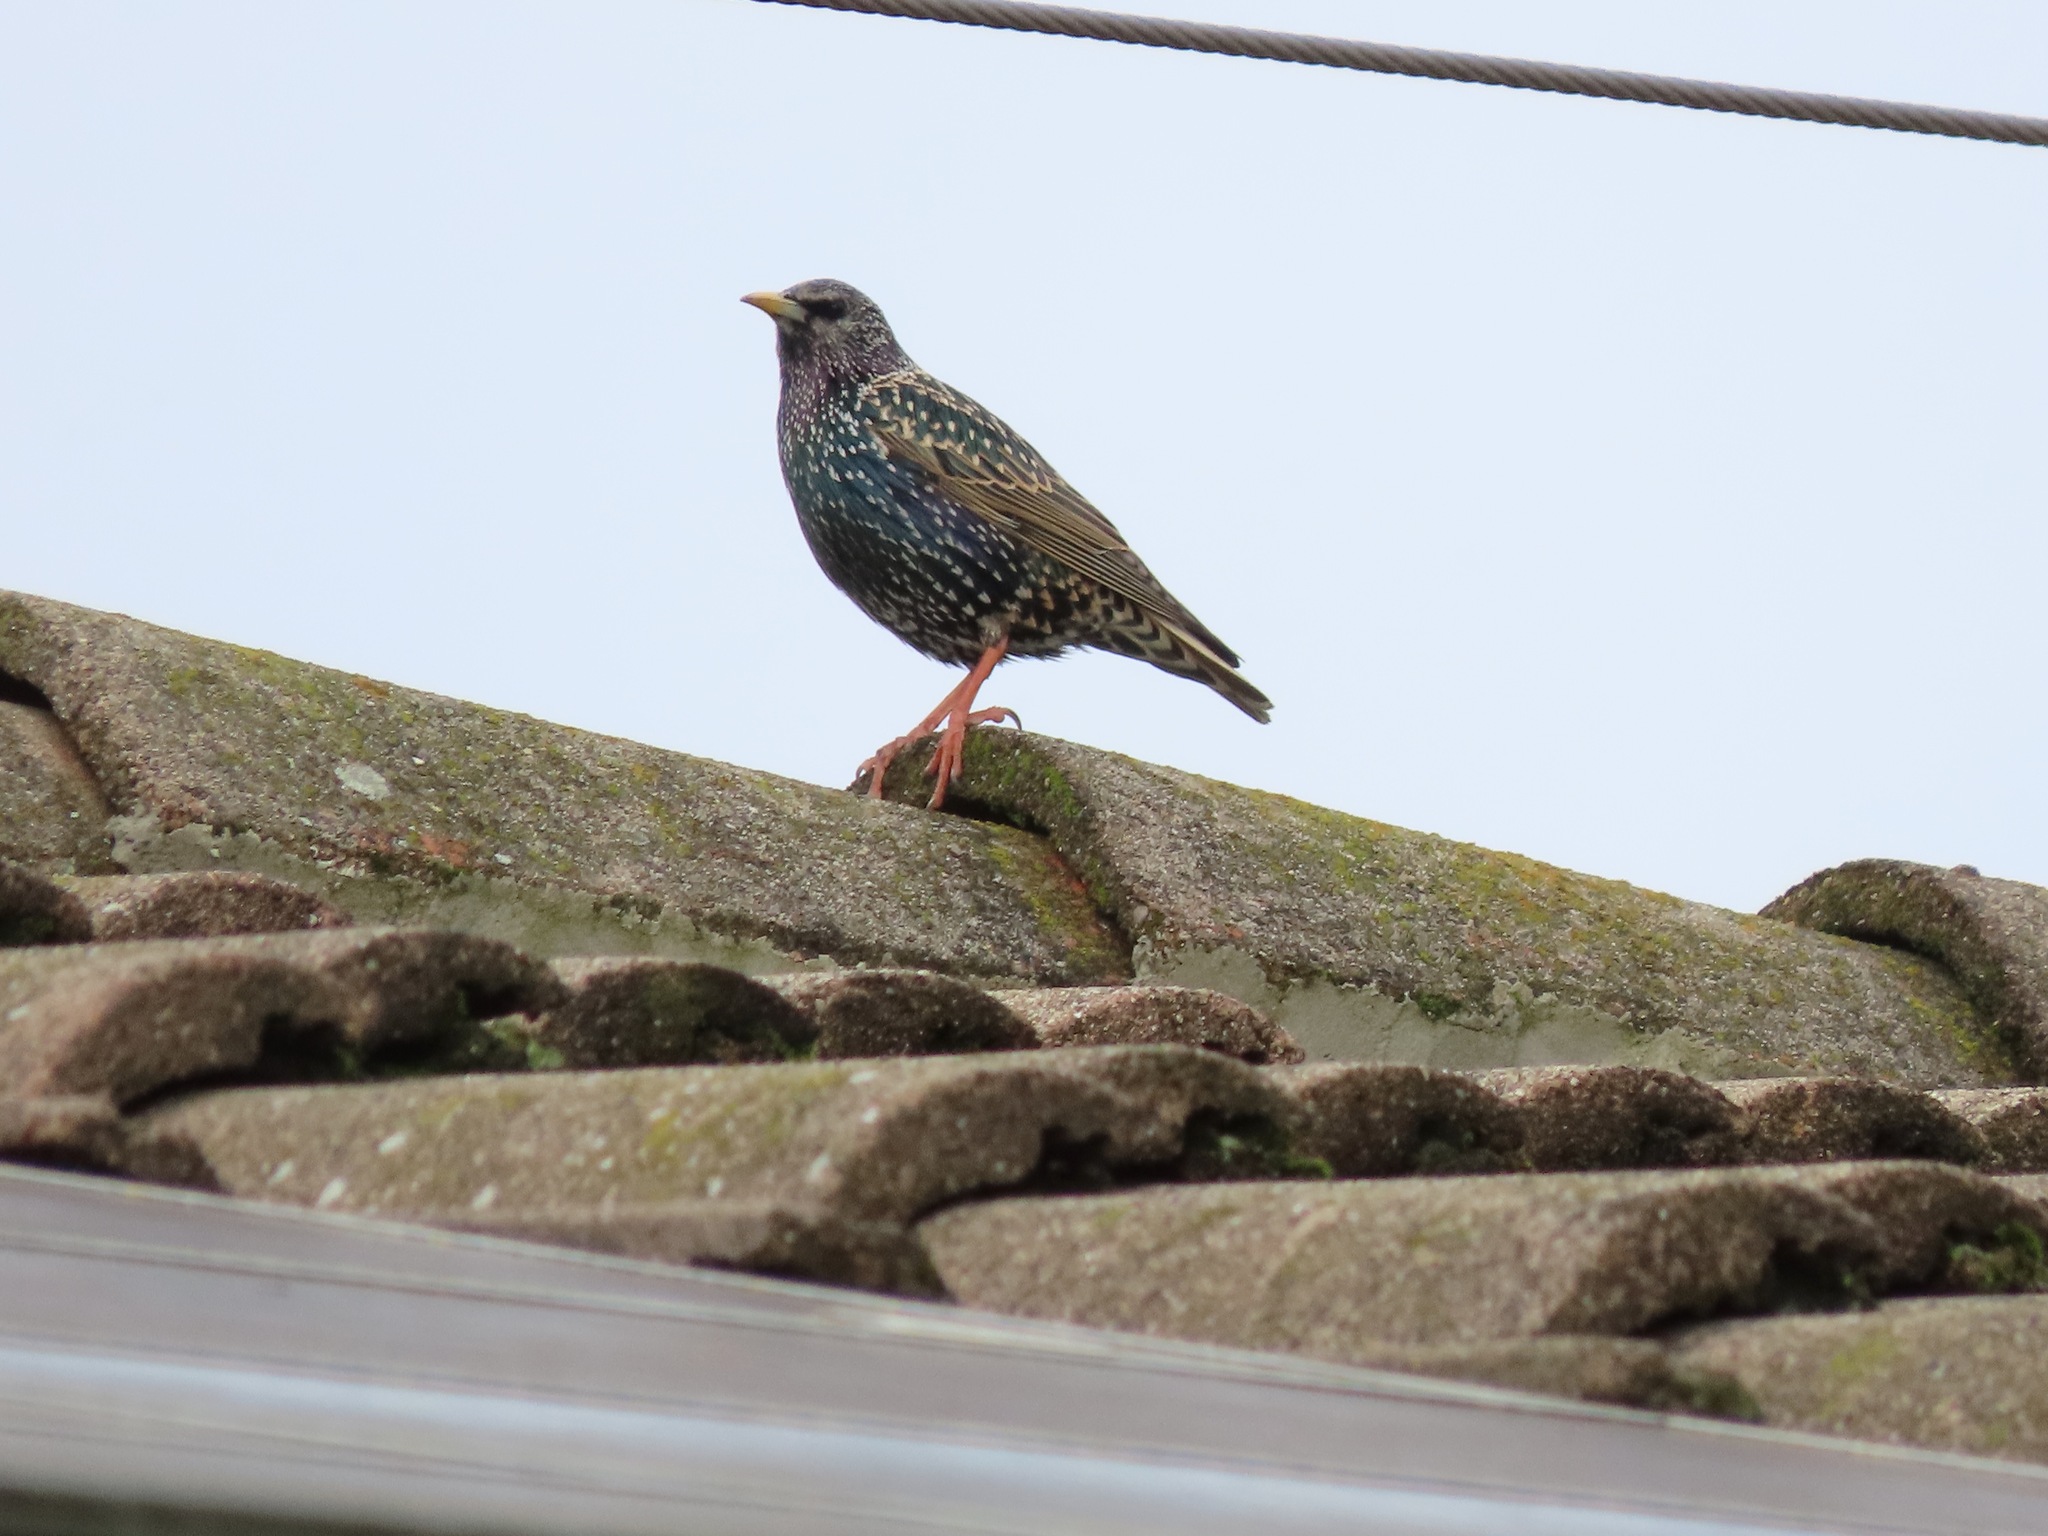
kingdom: Animalia
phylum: Chordata
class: Aves
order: Passeriformes
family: Sturnidae
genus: Sturnus
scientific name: Sturnus vulgaris
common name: Common starling
